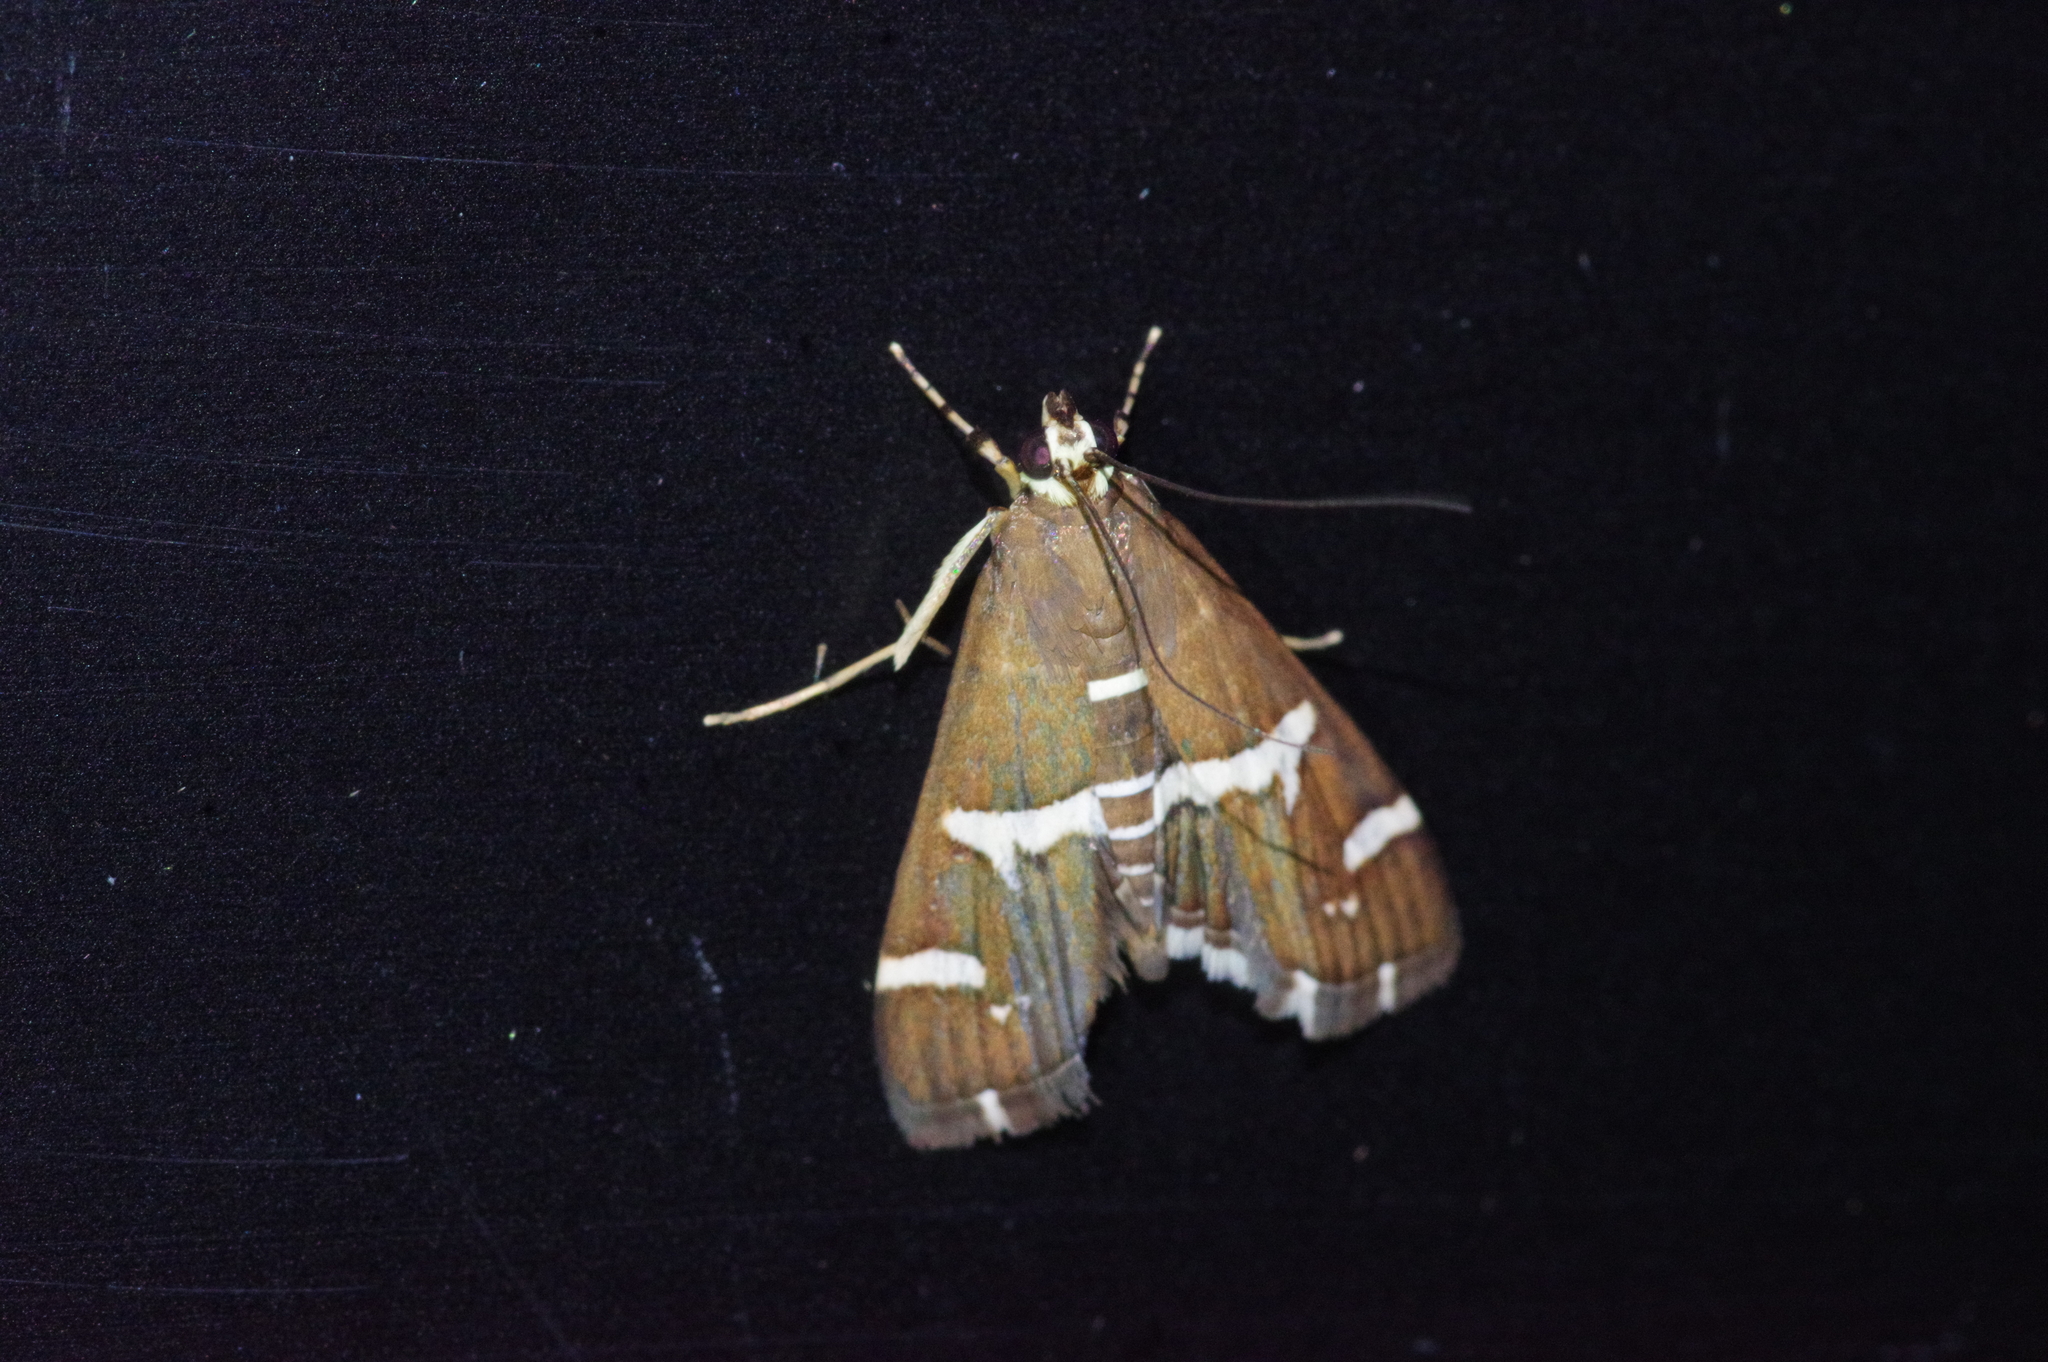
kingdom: Animalia
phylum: Arthropoda
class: Insecta
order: Lepidoptera
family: Crambidae
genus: Spoladea
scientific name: Spoladea recurvalis
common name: Beet webworm moth
